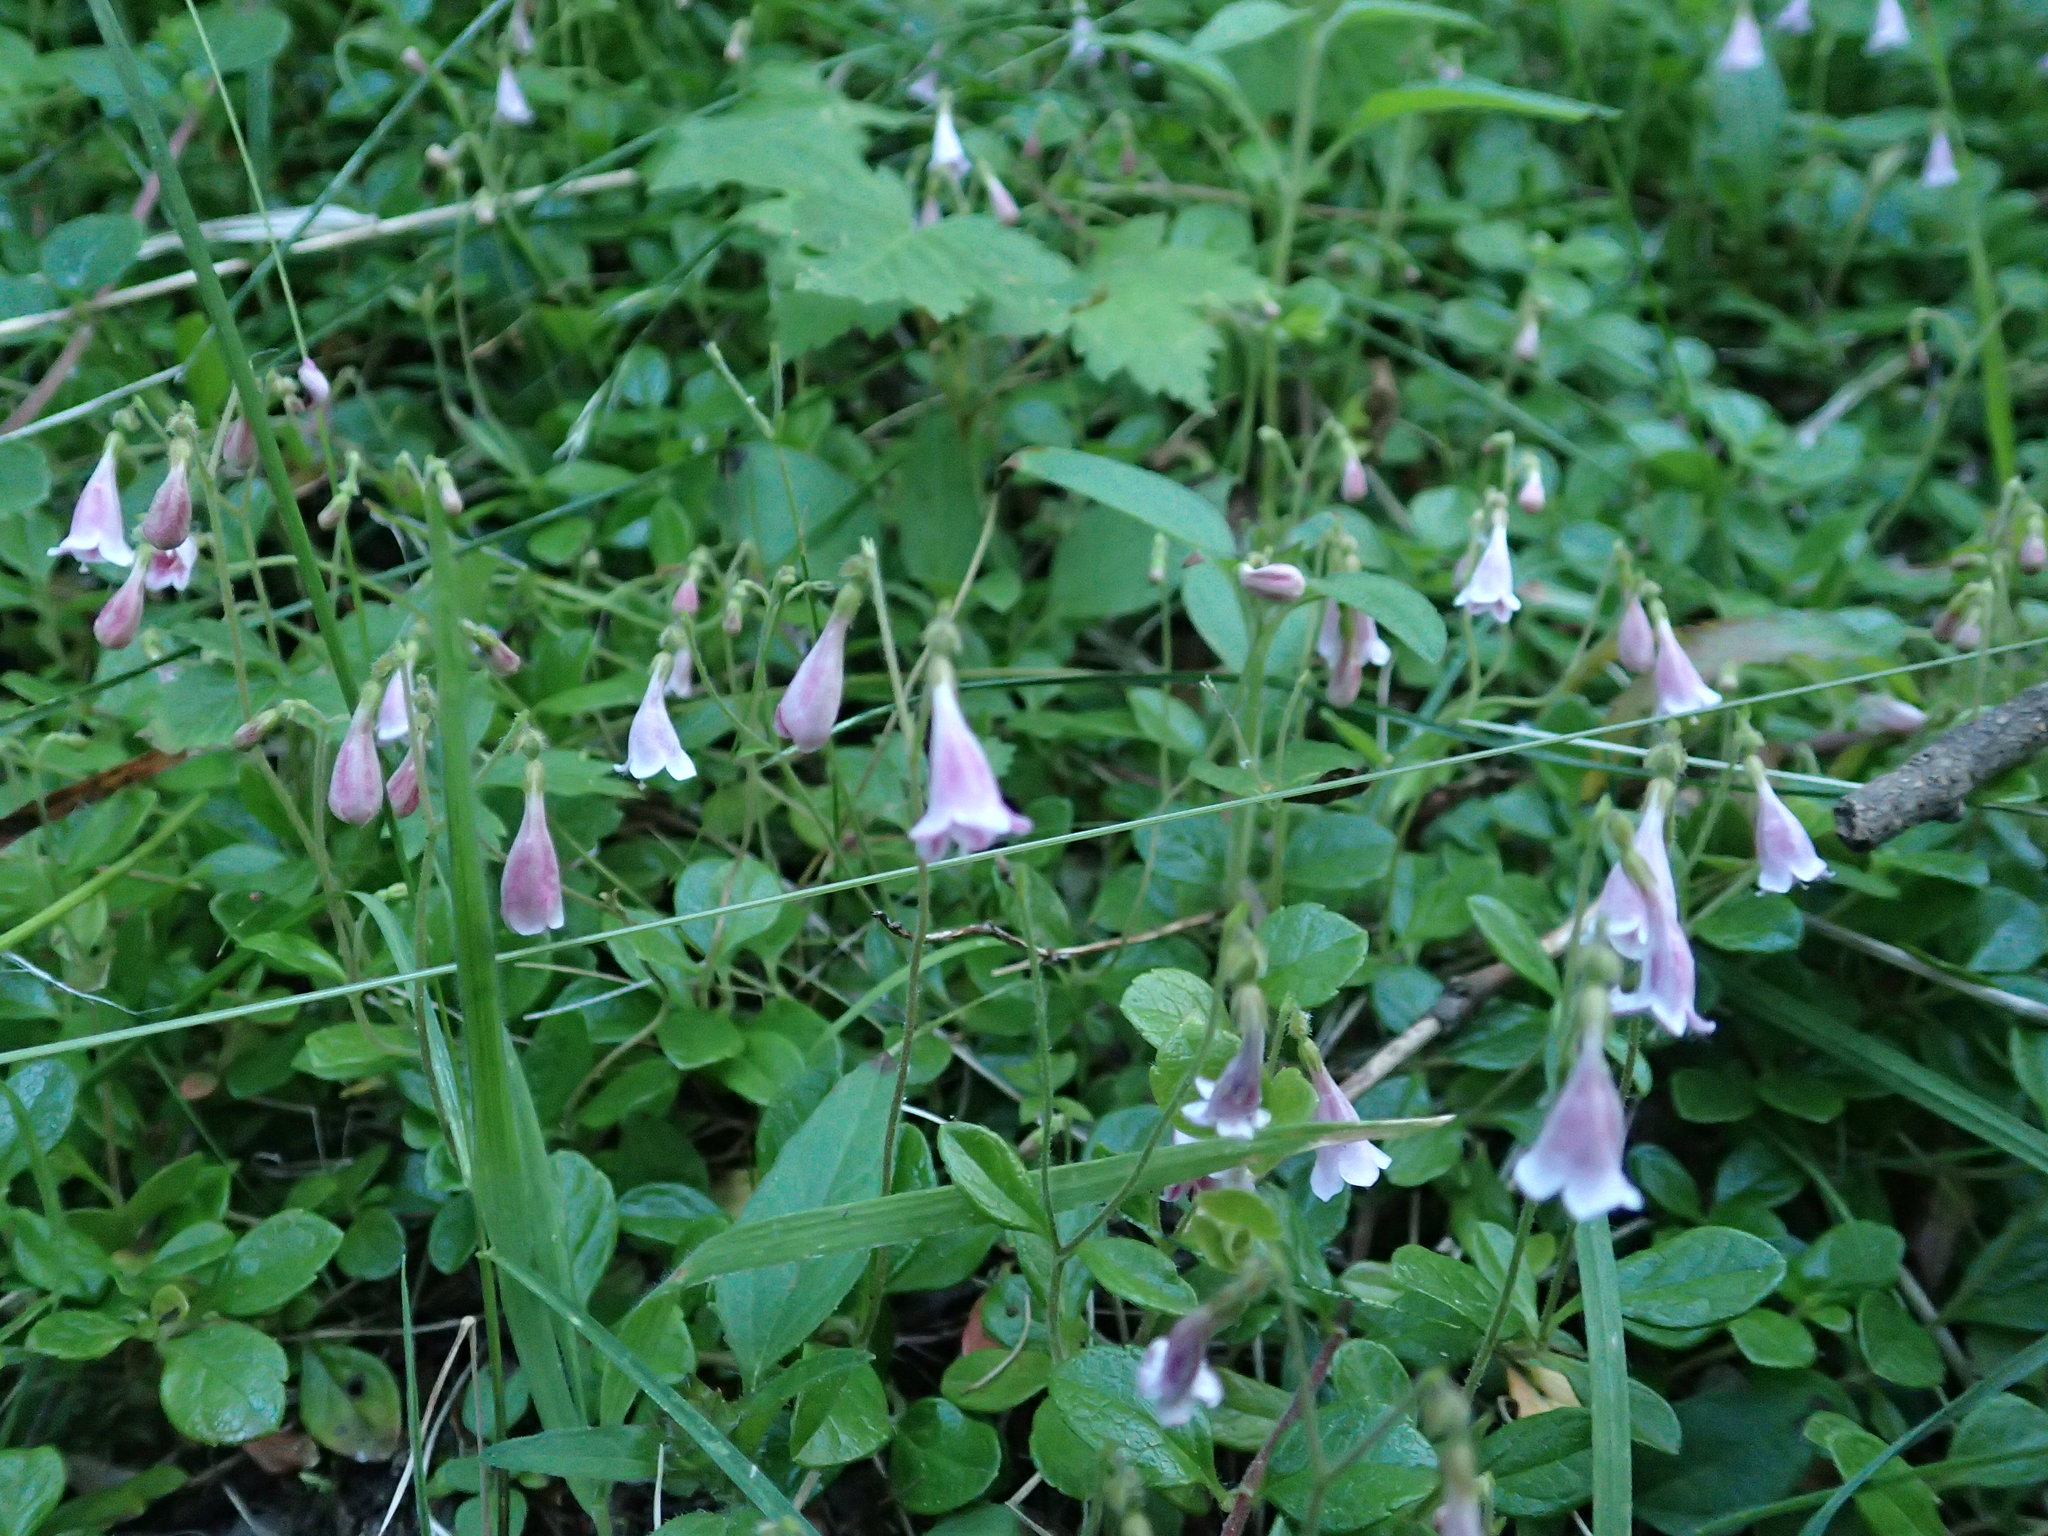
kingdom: Plantae
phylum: Tracheophyta
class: Magnoliopsida
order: Dipsacales
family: Caprifoliaceae
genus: Linnaea
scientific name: Linnaea borealis
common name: Twinflower
